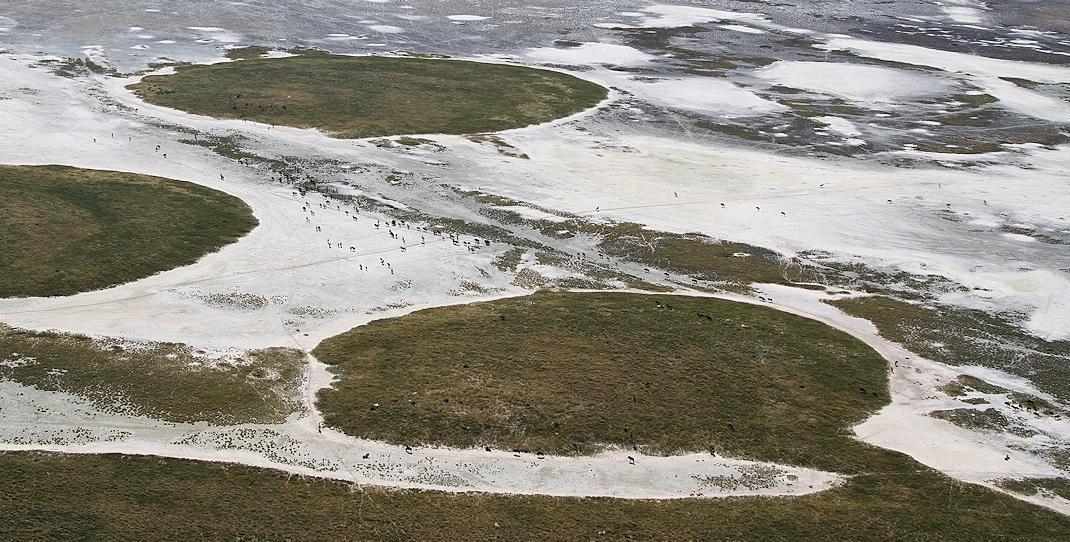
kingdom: Animalia
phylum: Chordata
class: Mammalia
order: Artiodactyla
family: Bovidae
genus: Connochaetes
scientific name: Connochaetes taurinus
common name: Blue wildebeest
